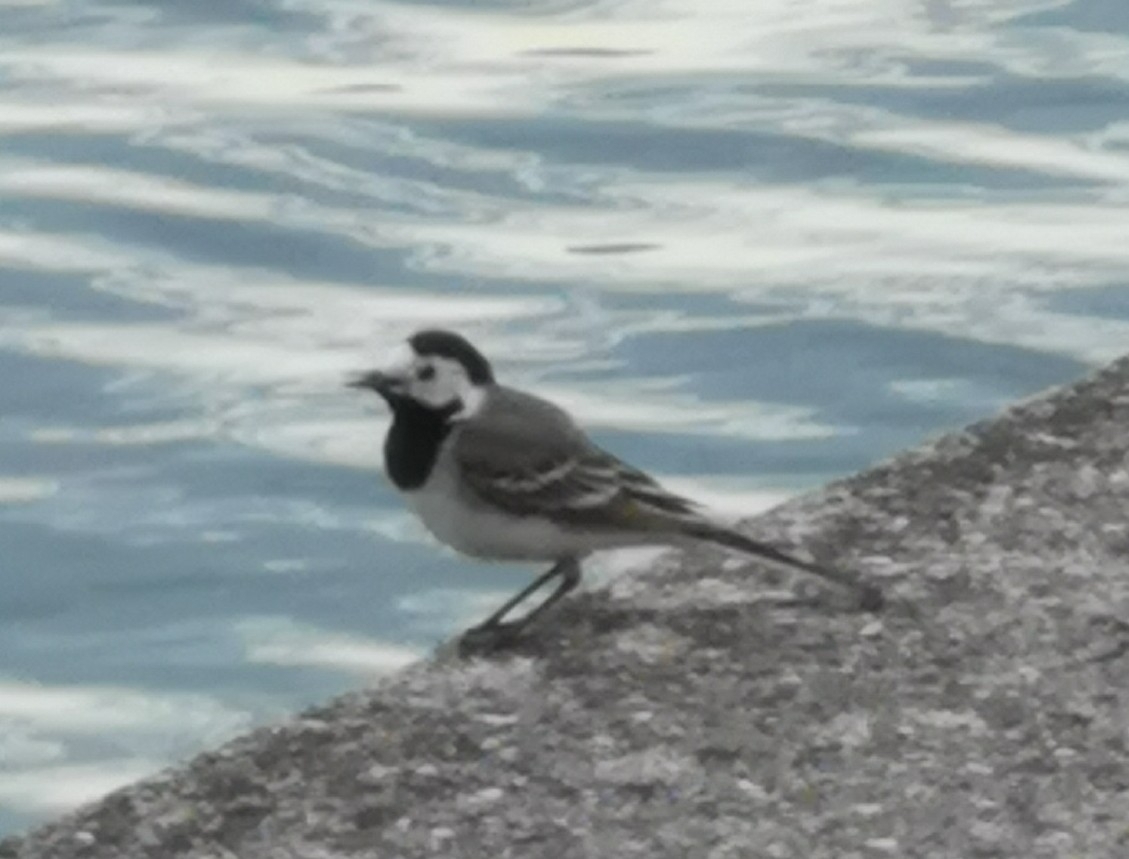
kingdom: Animalia
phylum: Chordata
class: Aves
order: Passeriformes
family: Motacillidae
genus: Motacilla
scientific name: Motacilla alba
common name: White wagtail
